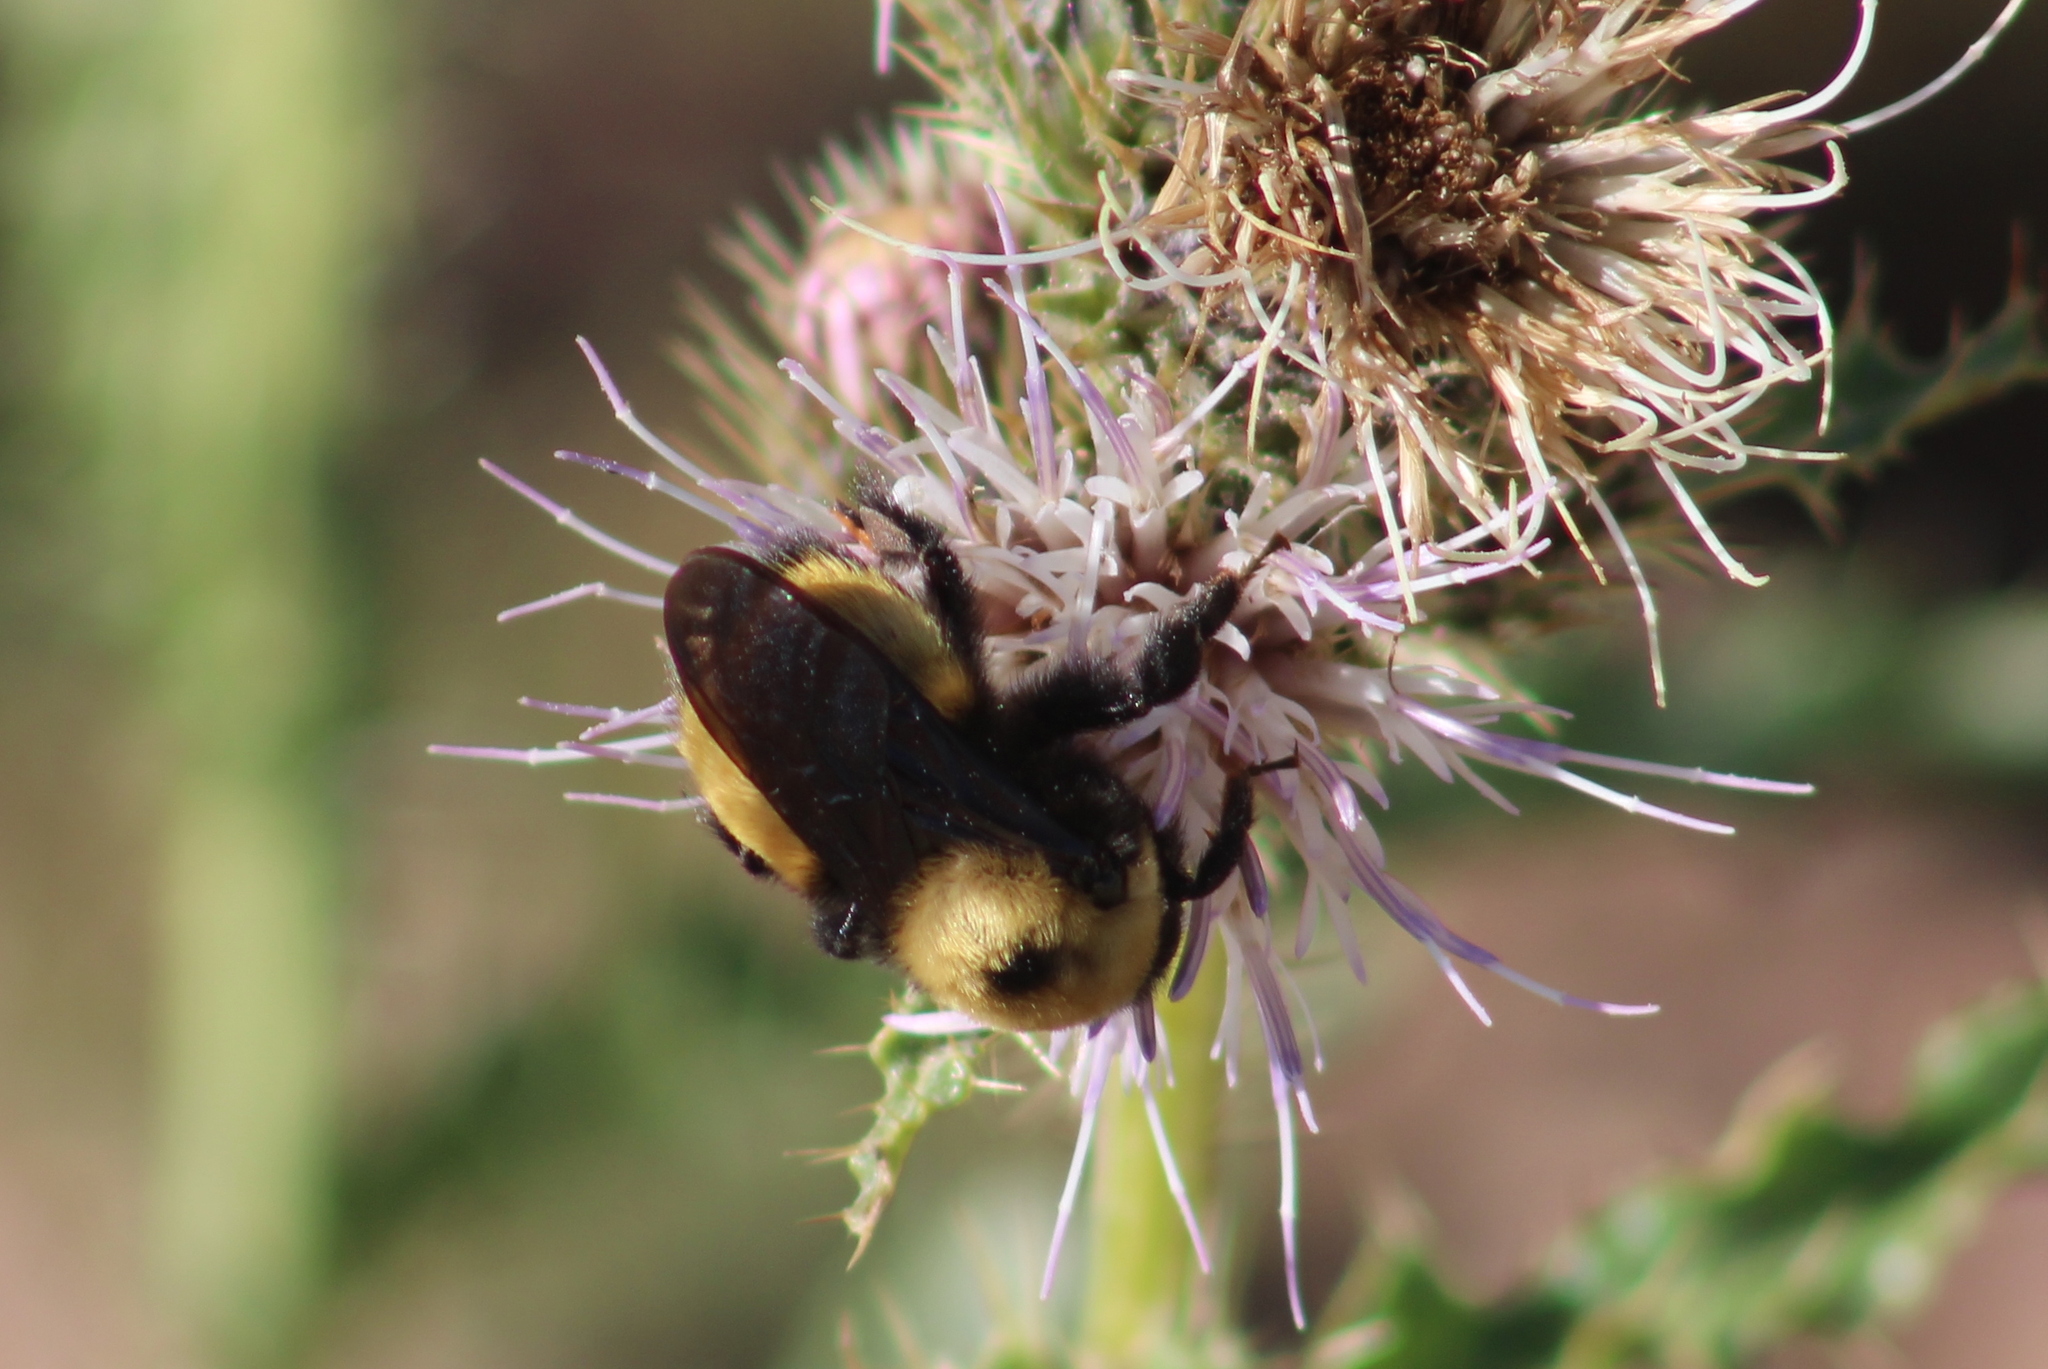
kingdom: Animalia
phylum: Arthropoda
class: Insecta
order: Hymenoptera
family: Apidae
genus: Bombus
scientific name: Bombus nevadensis
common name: Nevada bumble bee
